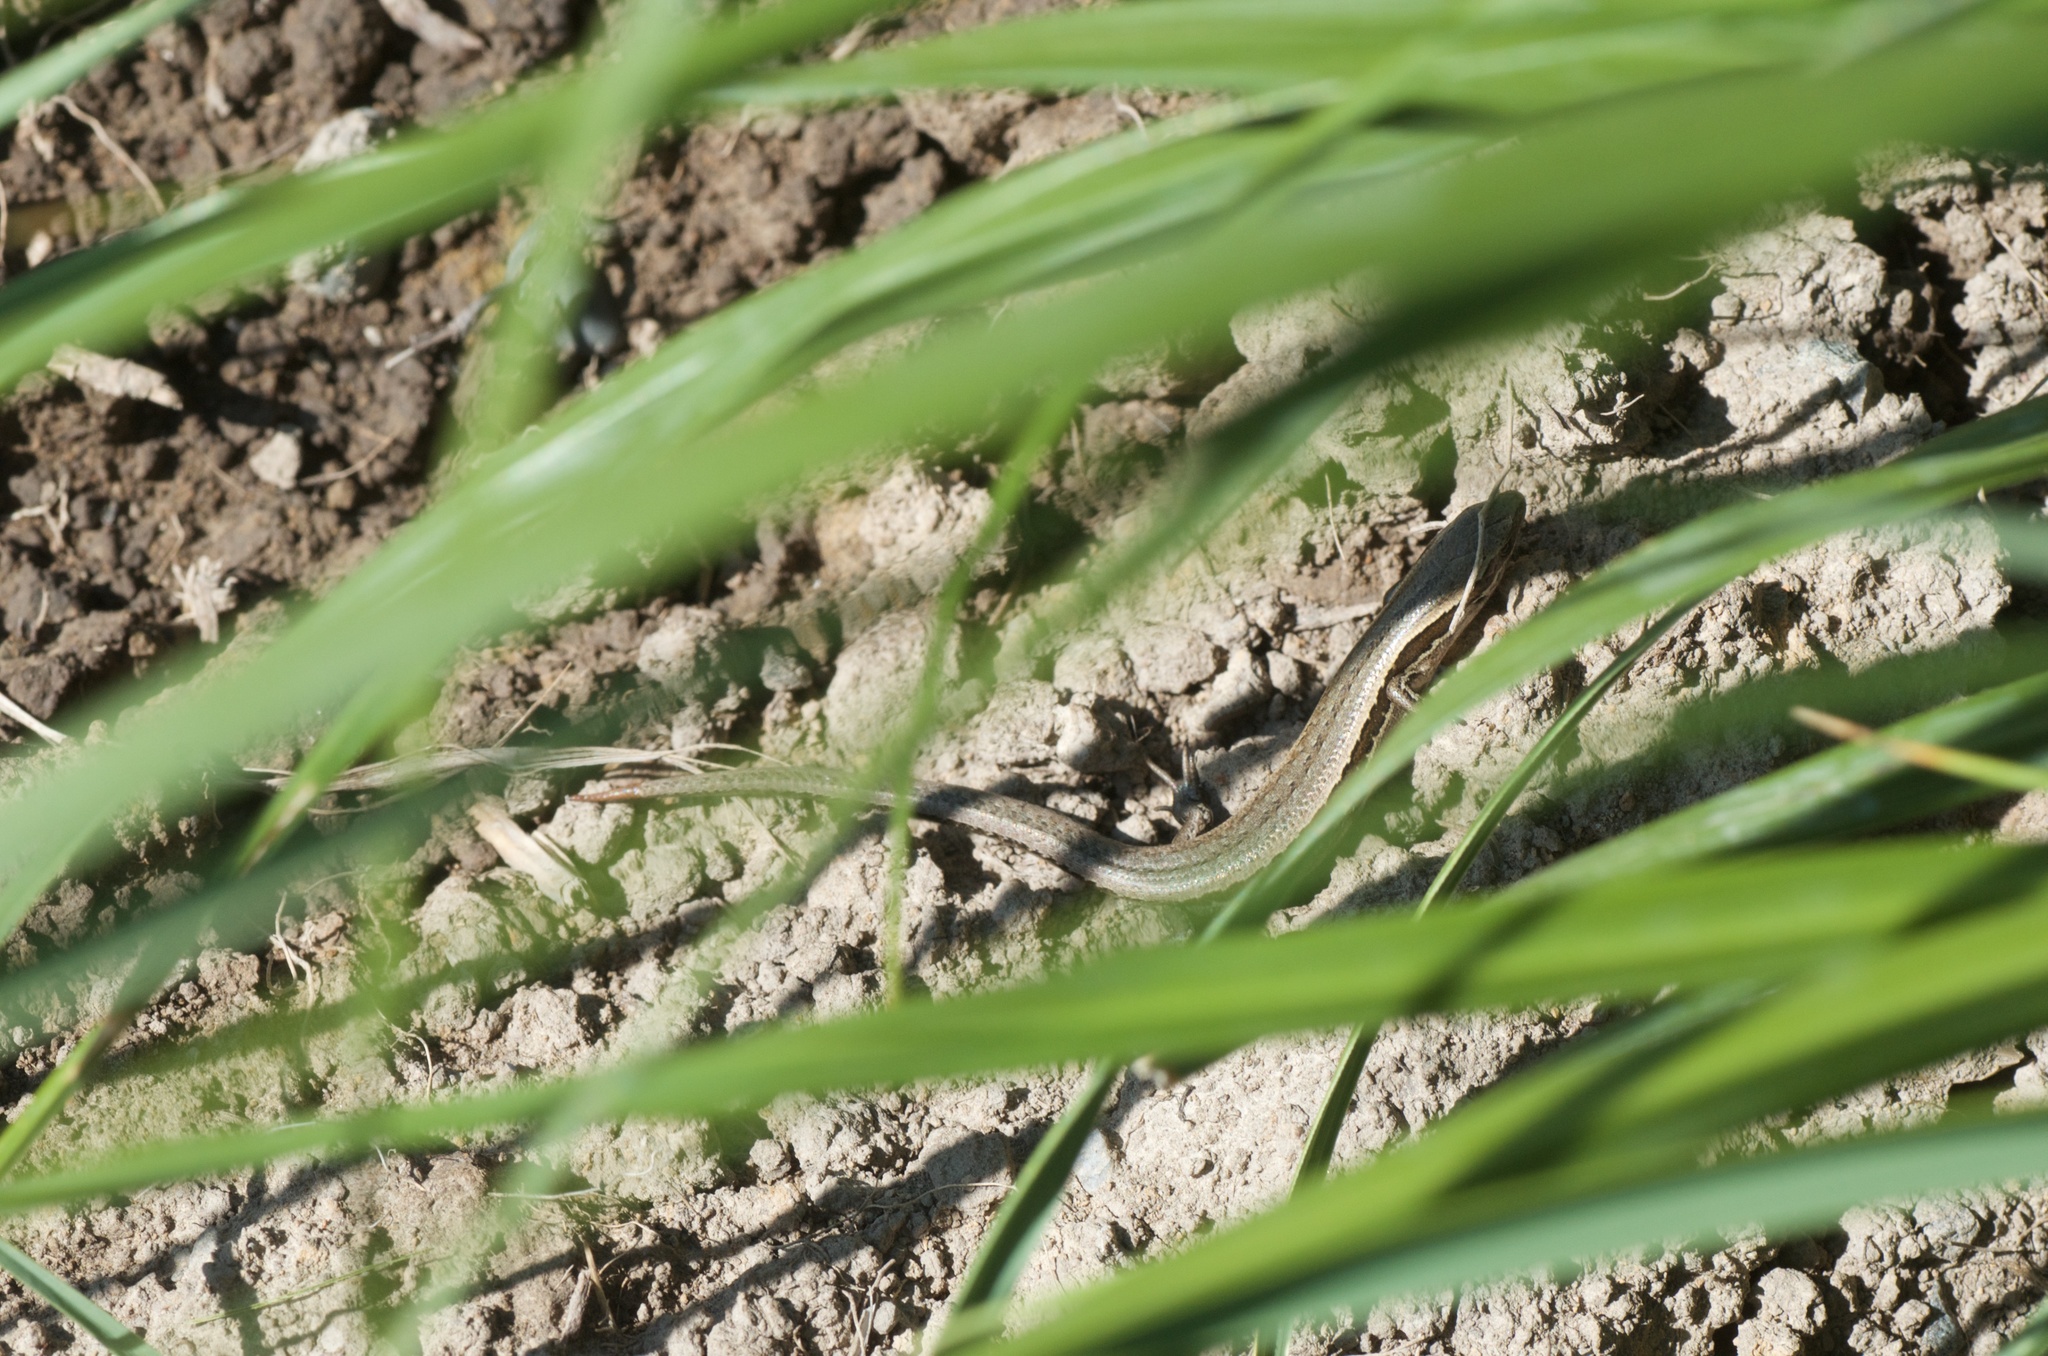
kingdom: Animalia
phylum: Chordata
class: Squamata
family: Scincidae
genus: Oligosoma
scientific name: Oligosoma polychroma
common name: Common new zealand skink
